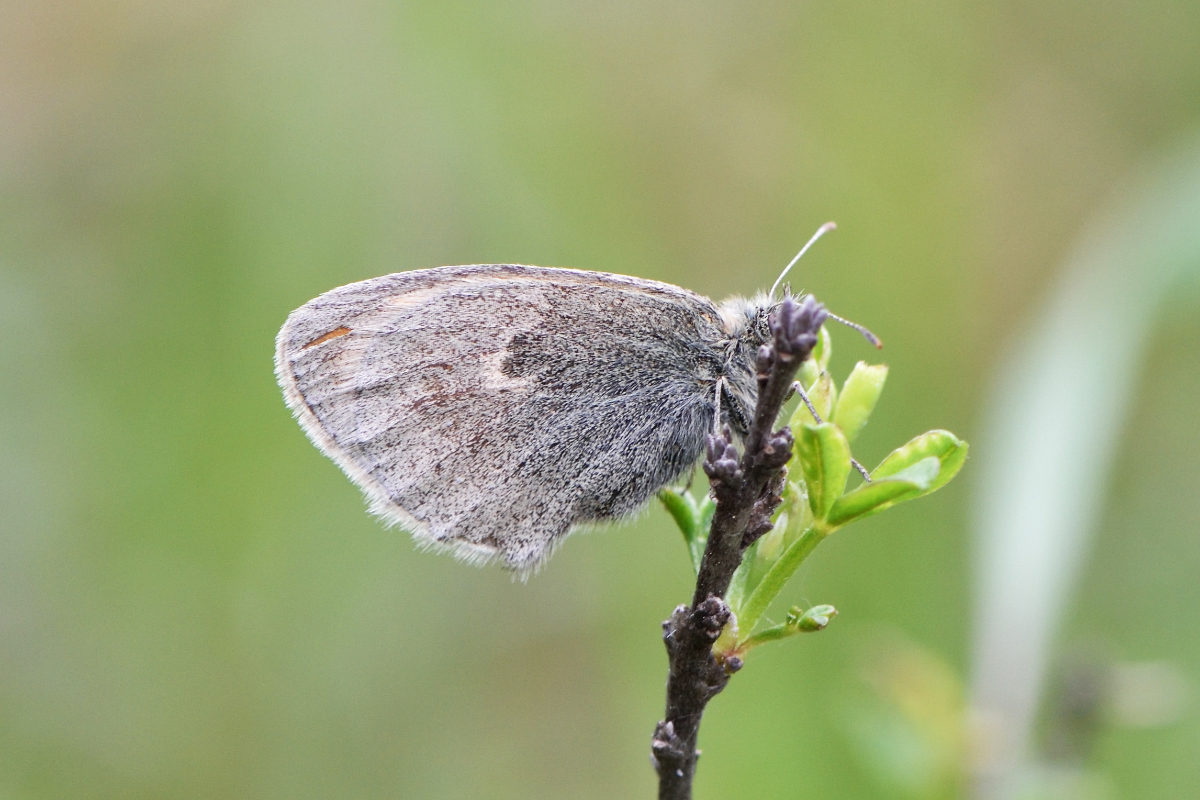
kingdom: Animalia
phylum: Arthropoda
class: Insecta
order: Lepidoptera
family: Nymphalidae
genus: Coenonympha
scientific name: Coenonympha pamphilus
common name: Small heath
